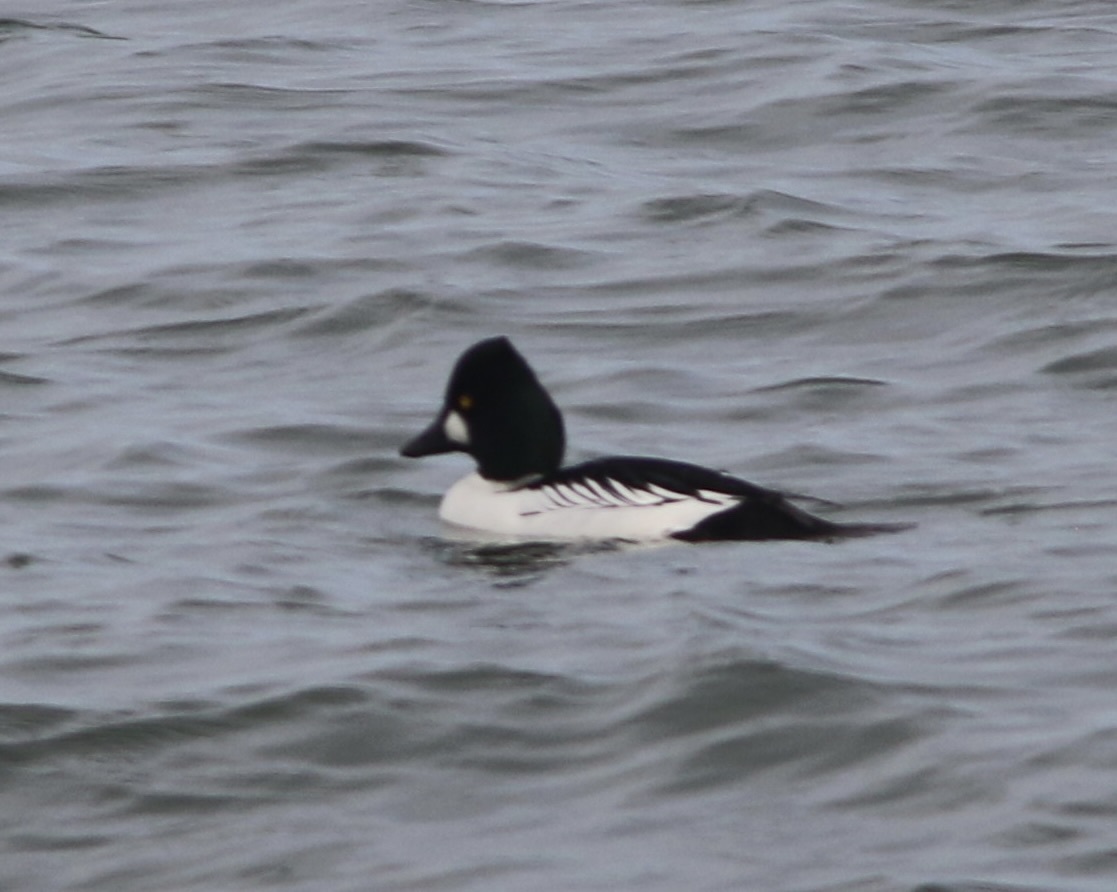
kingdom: Animalia
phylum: Chordata
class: Aves
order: Anseriformes
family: Anatidae
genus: Bucephala
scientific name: Bucephala clangula
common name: Common goldeneye
